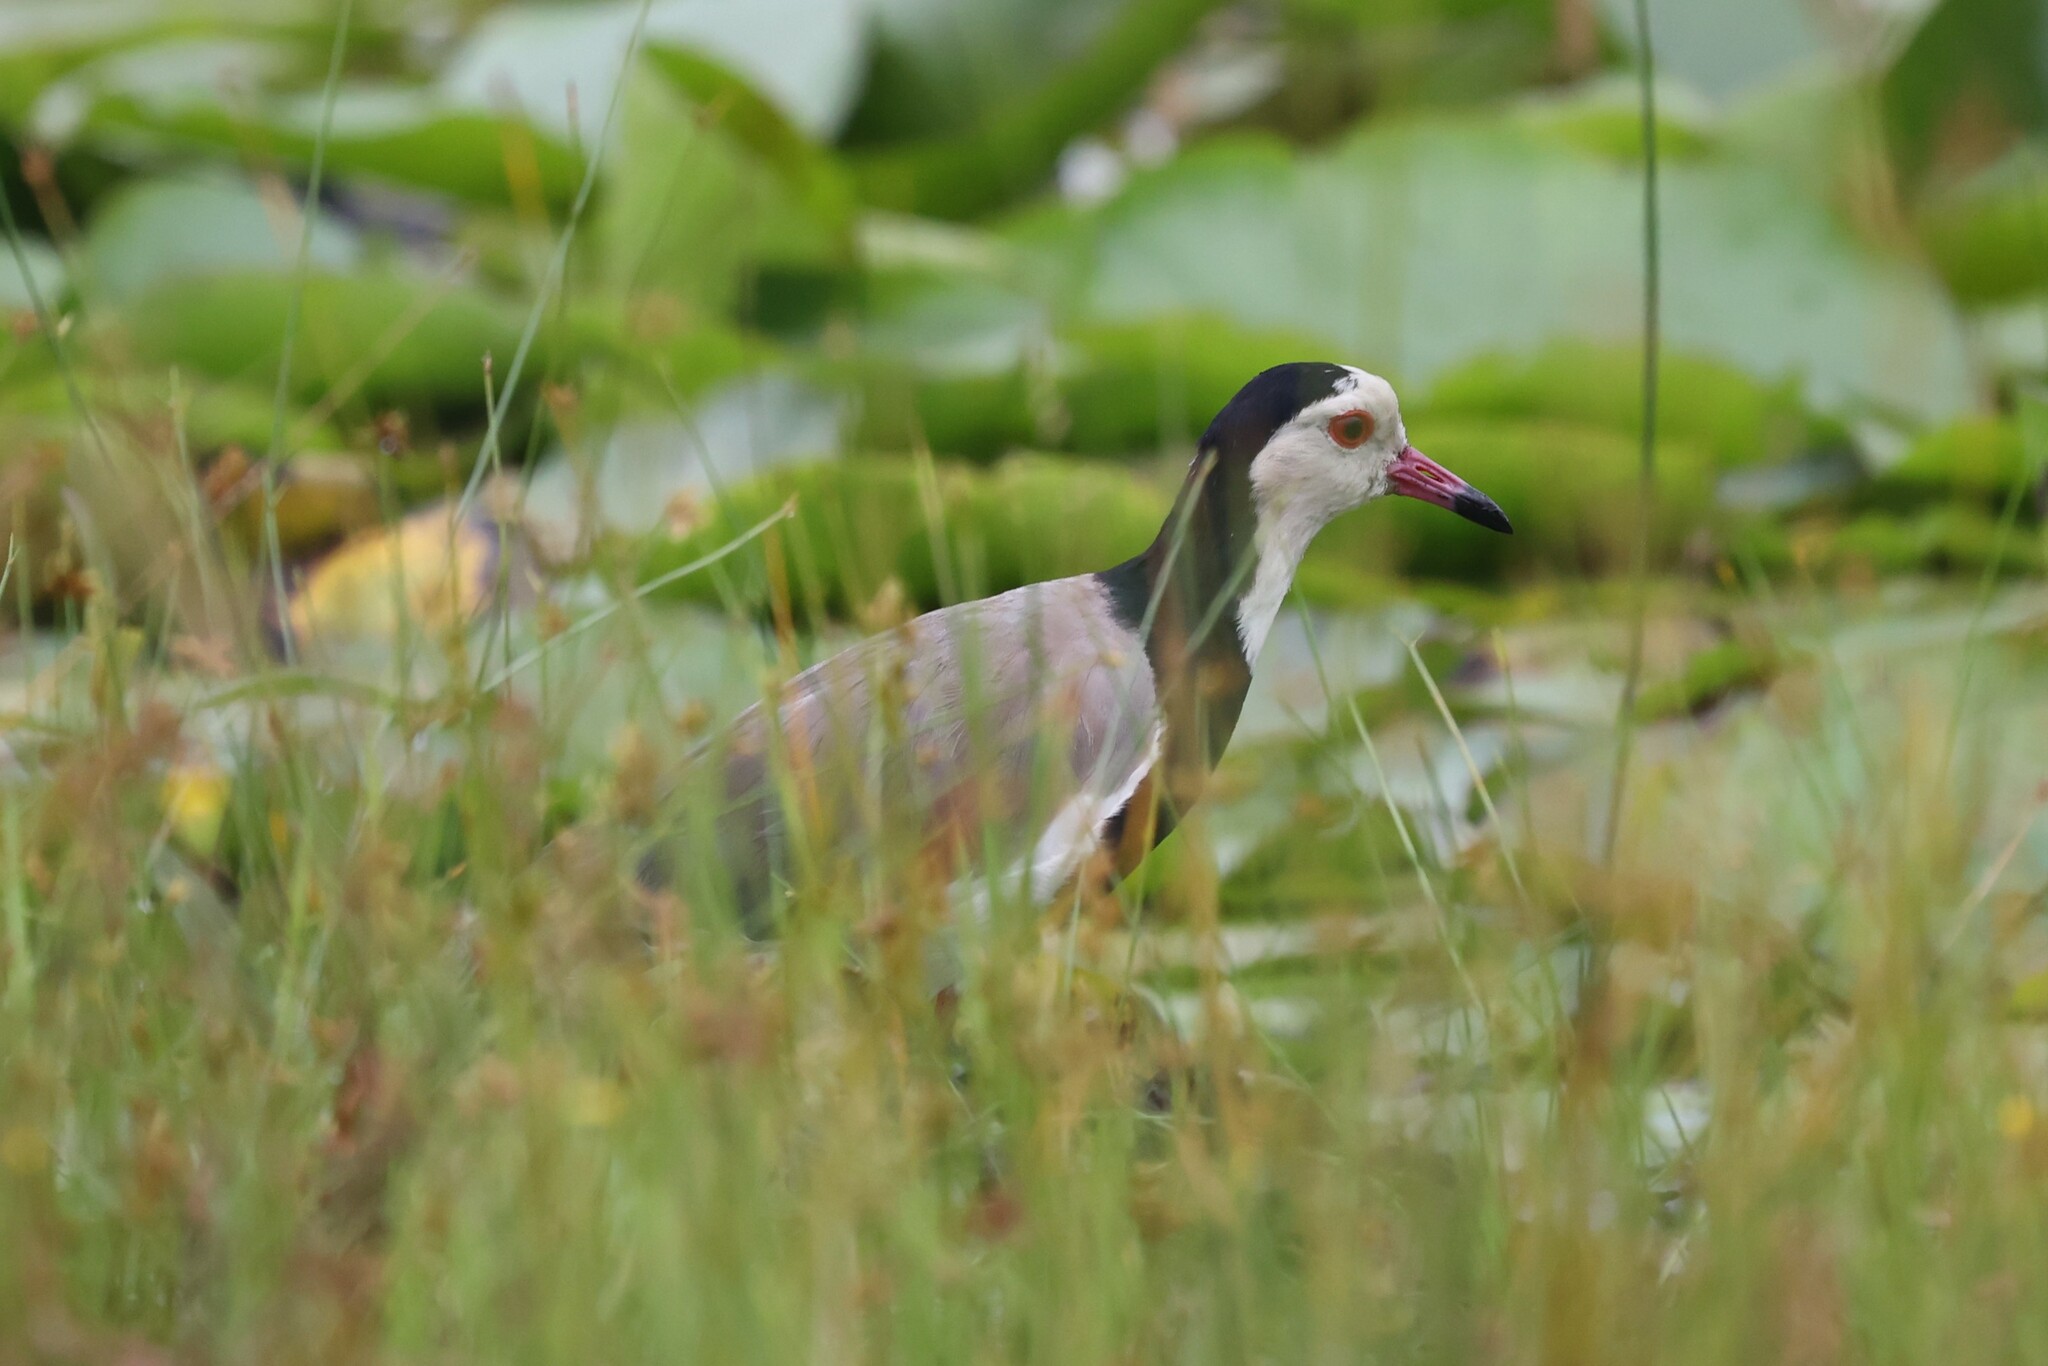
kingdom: Animalia
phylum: Chordata
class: Aves
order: Charadriiformes
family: Charadriidae
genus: Vanellus
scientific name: Vanellus crassirostris
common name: Long-toed lapwing
